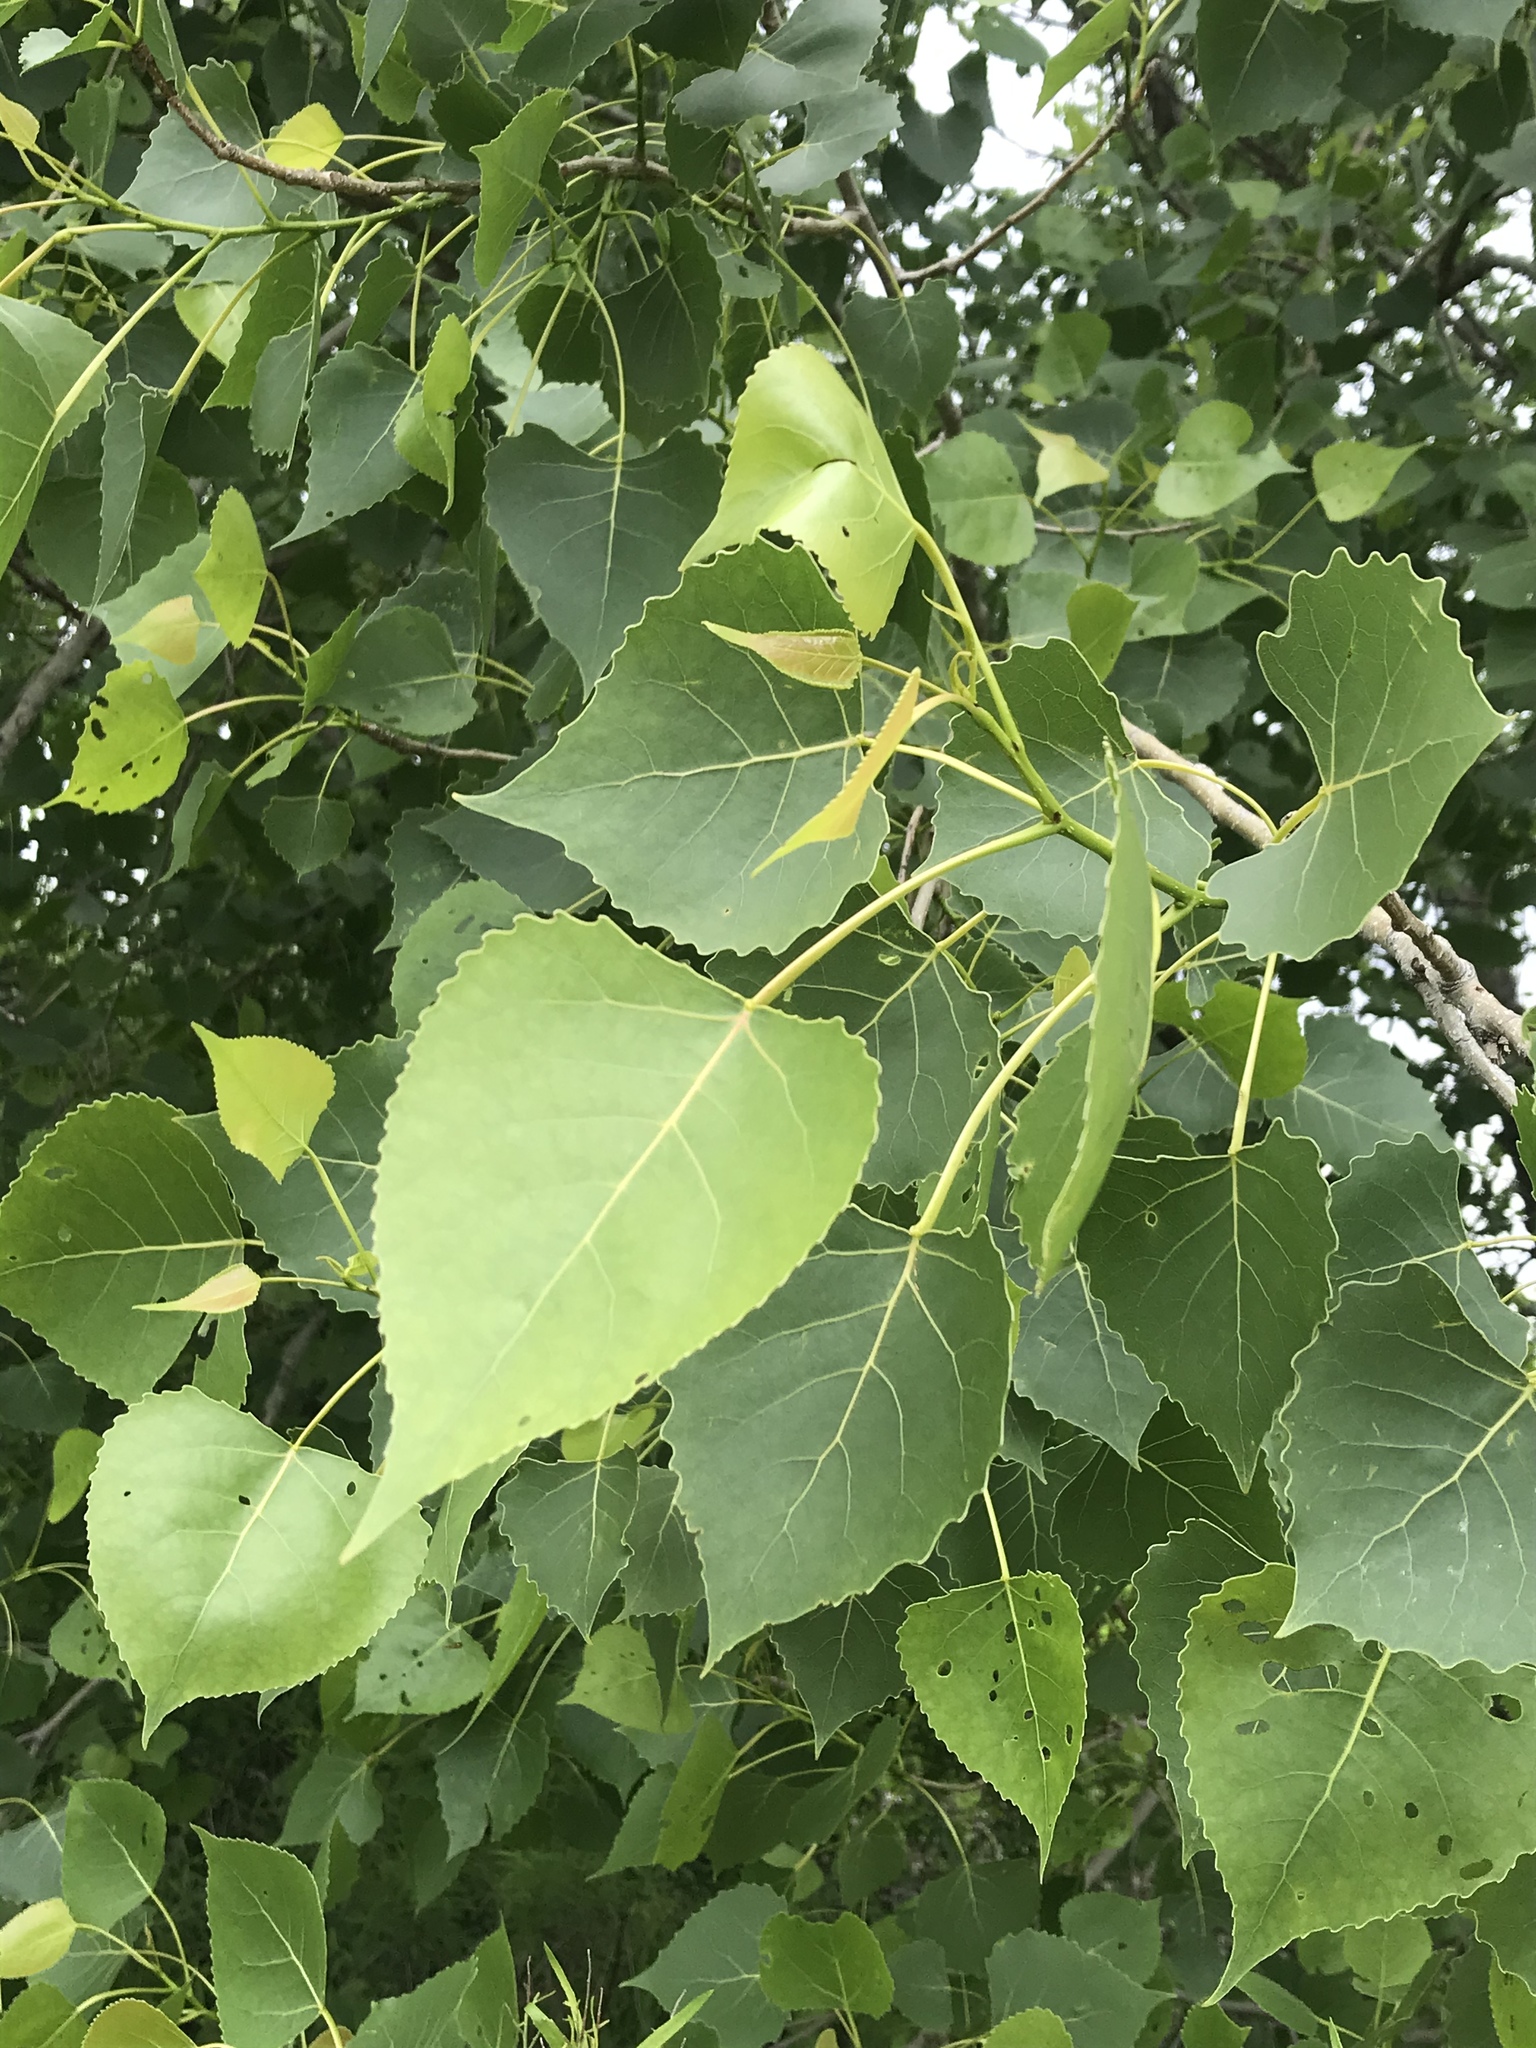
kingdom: Plantae
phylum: Tracheophyta
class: Magnoliopsida
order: Malpighiales
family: Salicaceae
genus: Populus
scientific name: Populus deltoides
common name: Eastern cottonwood
